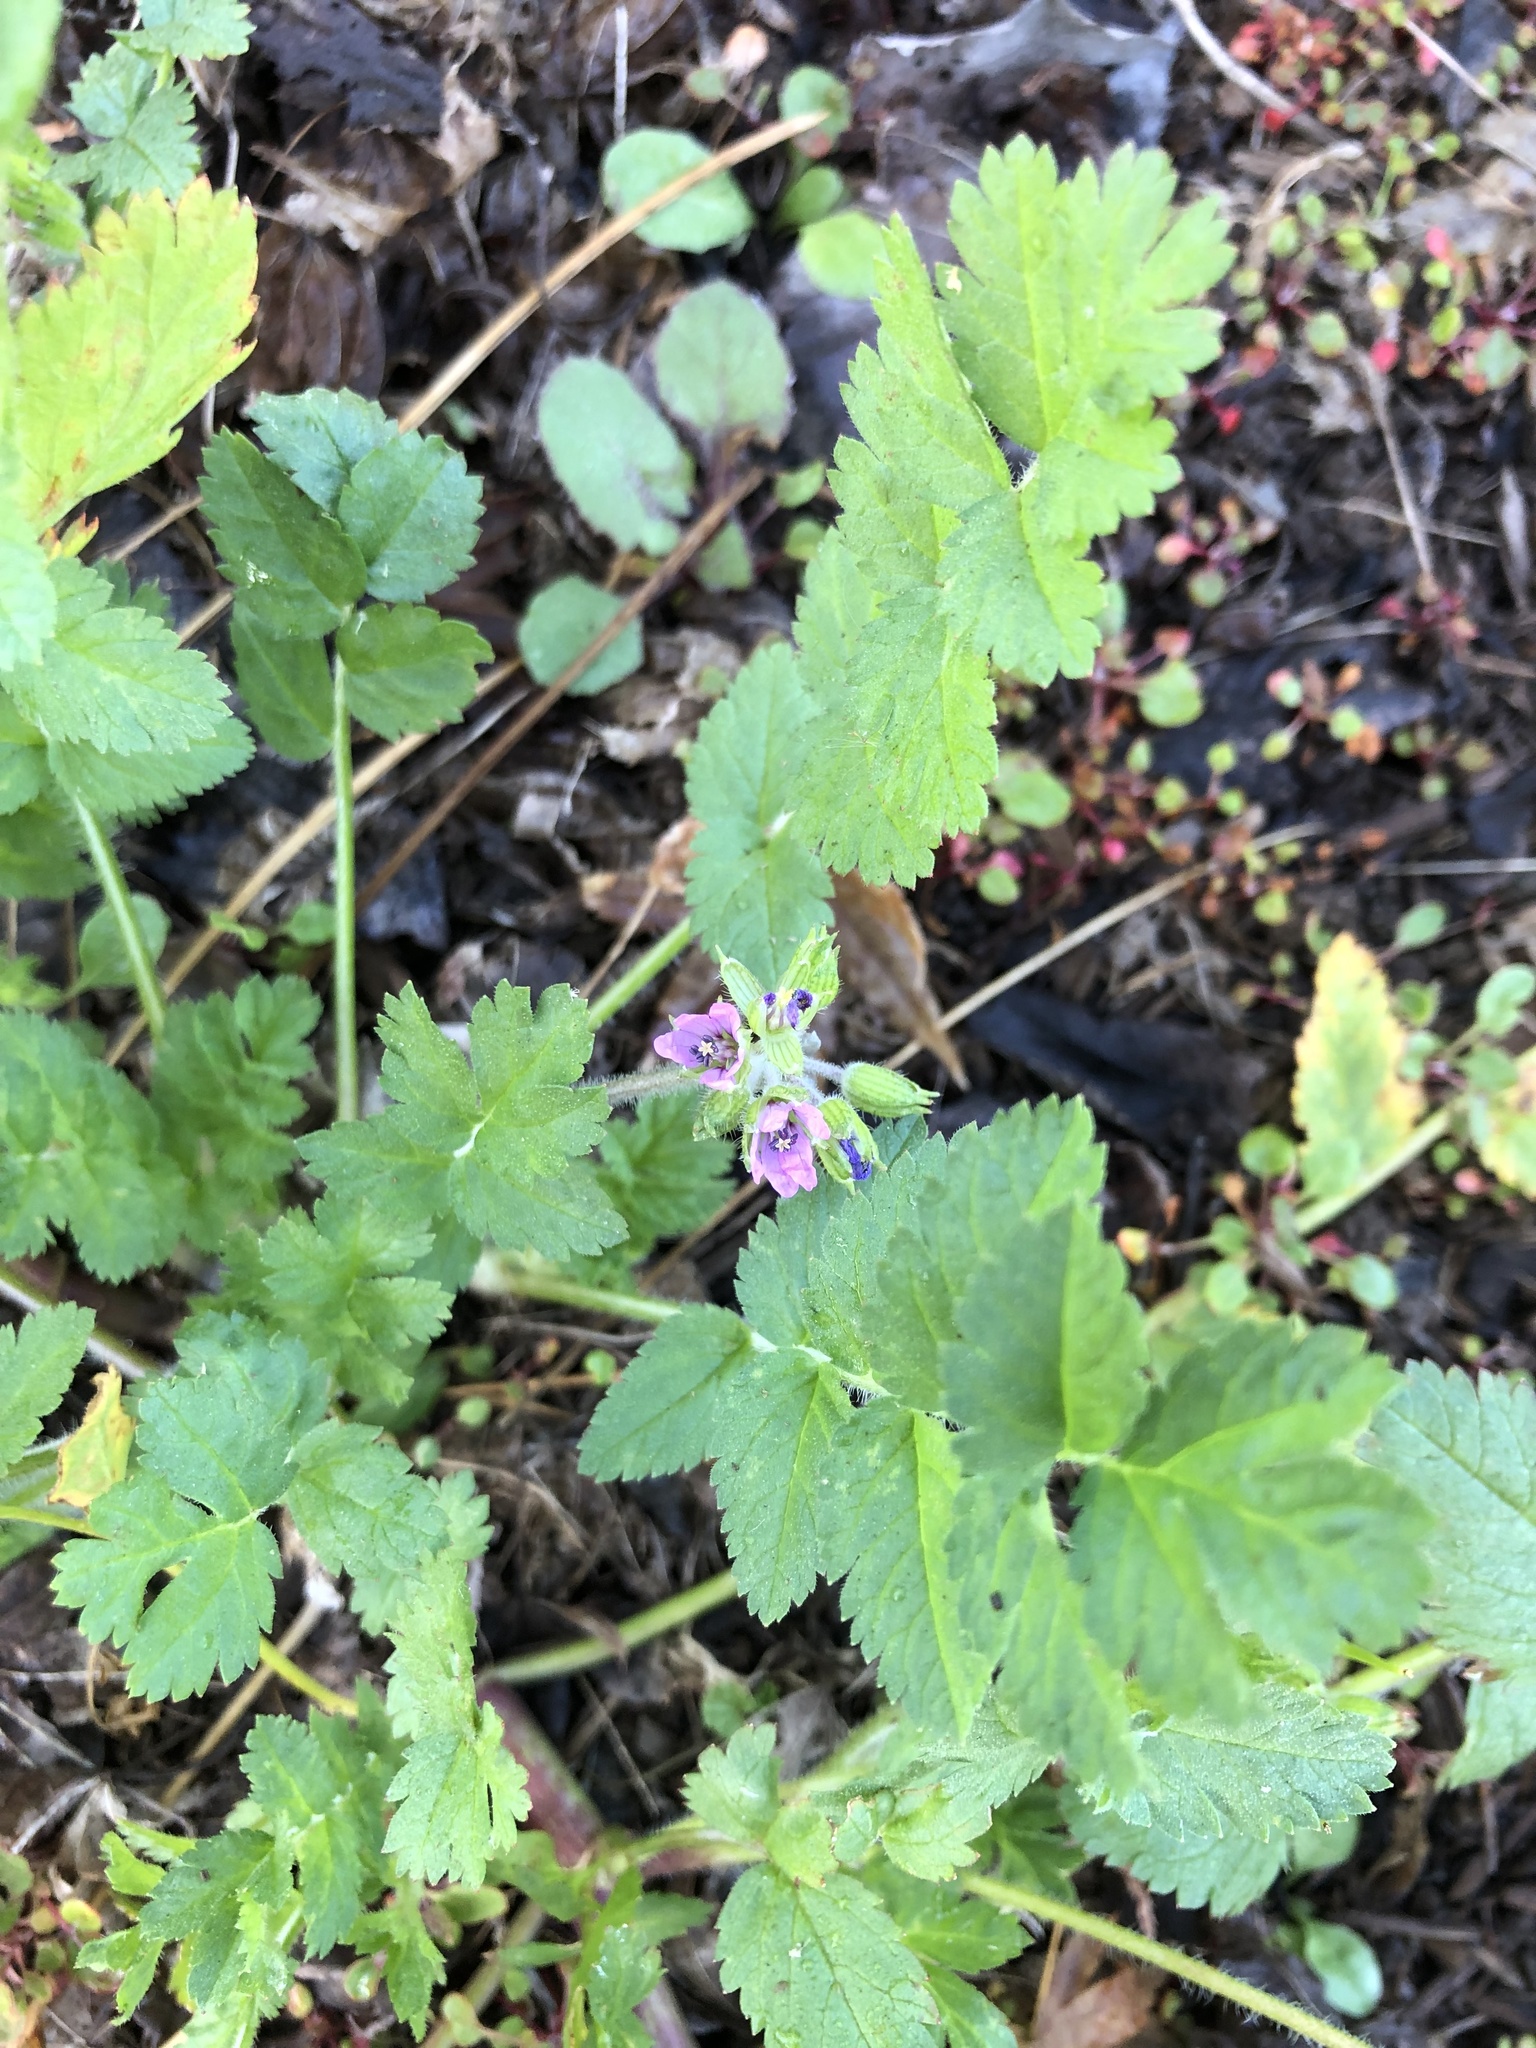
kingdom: Plantae
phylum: Tracheophyta
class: Magnoliopsida
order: Geraniales
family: Geraniaceae
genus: Erodium
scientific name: Erodium moschatum
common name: Musk stork's-bill
